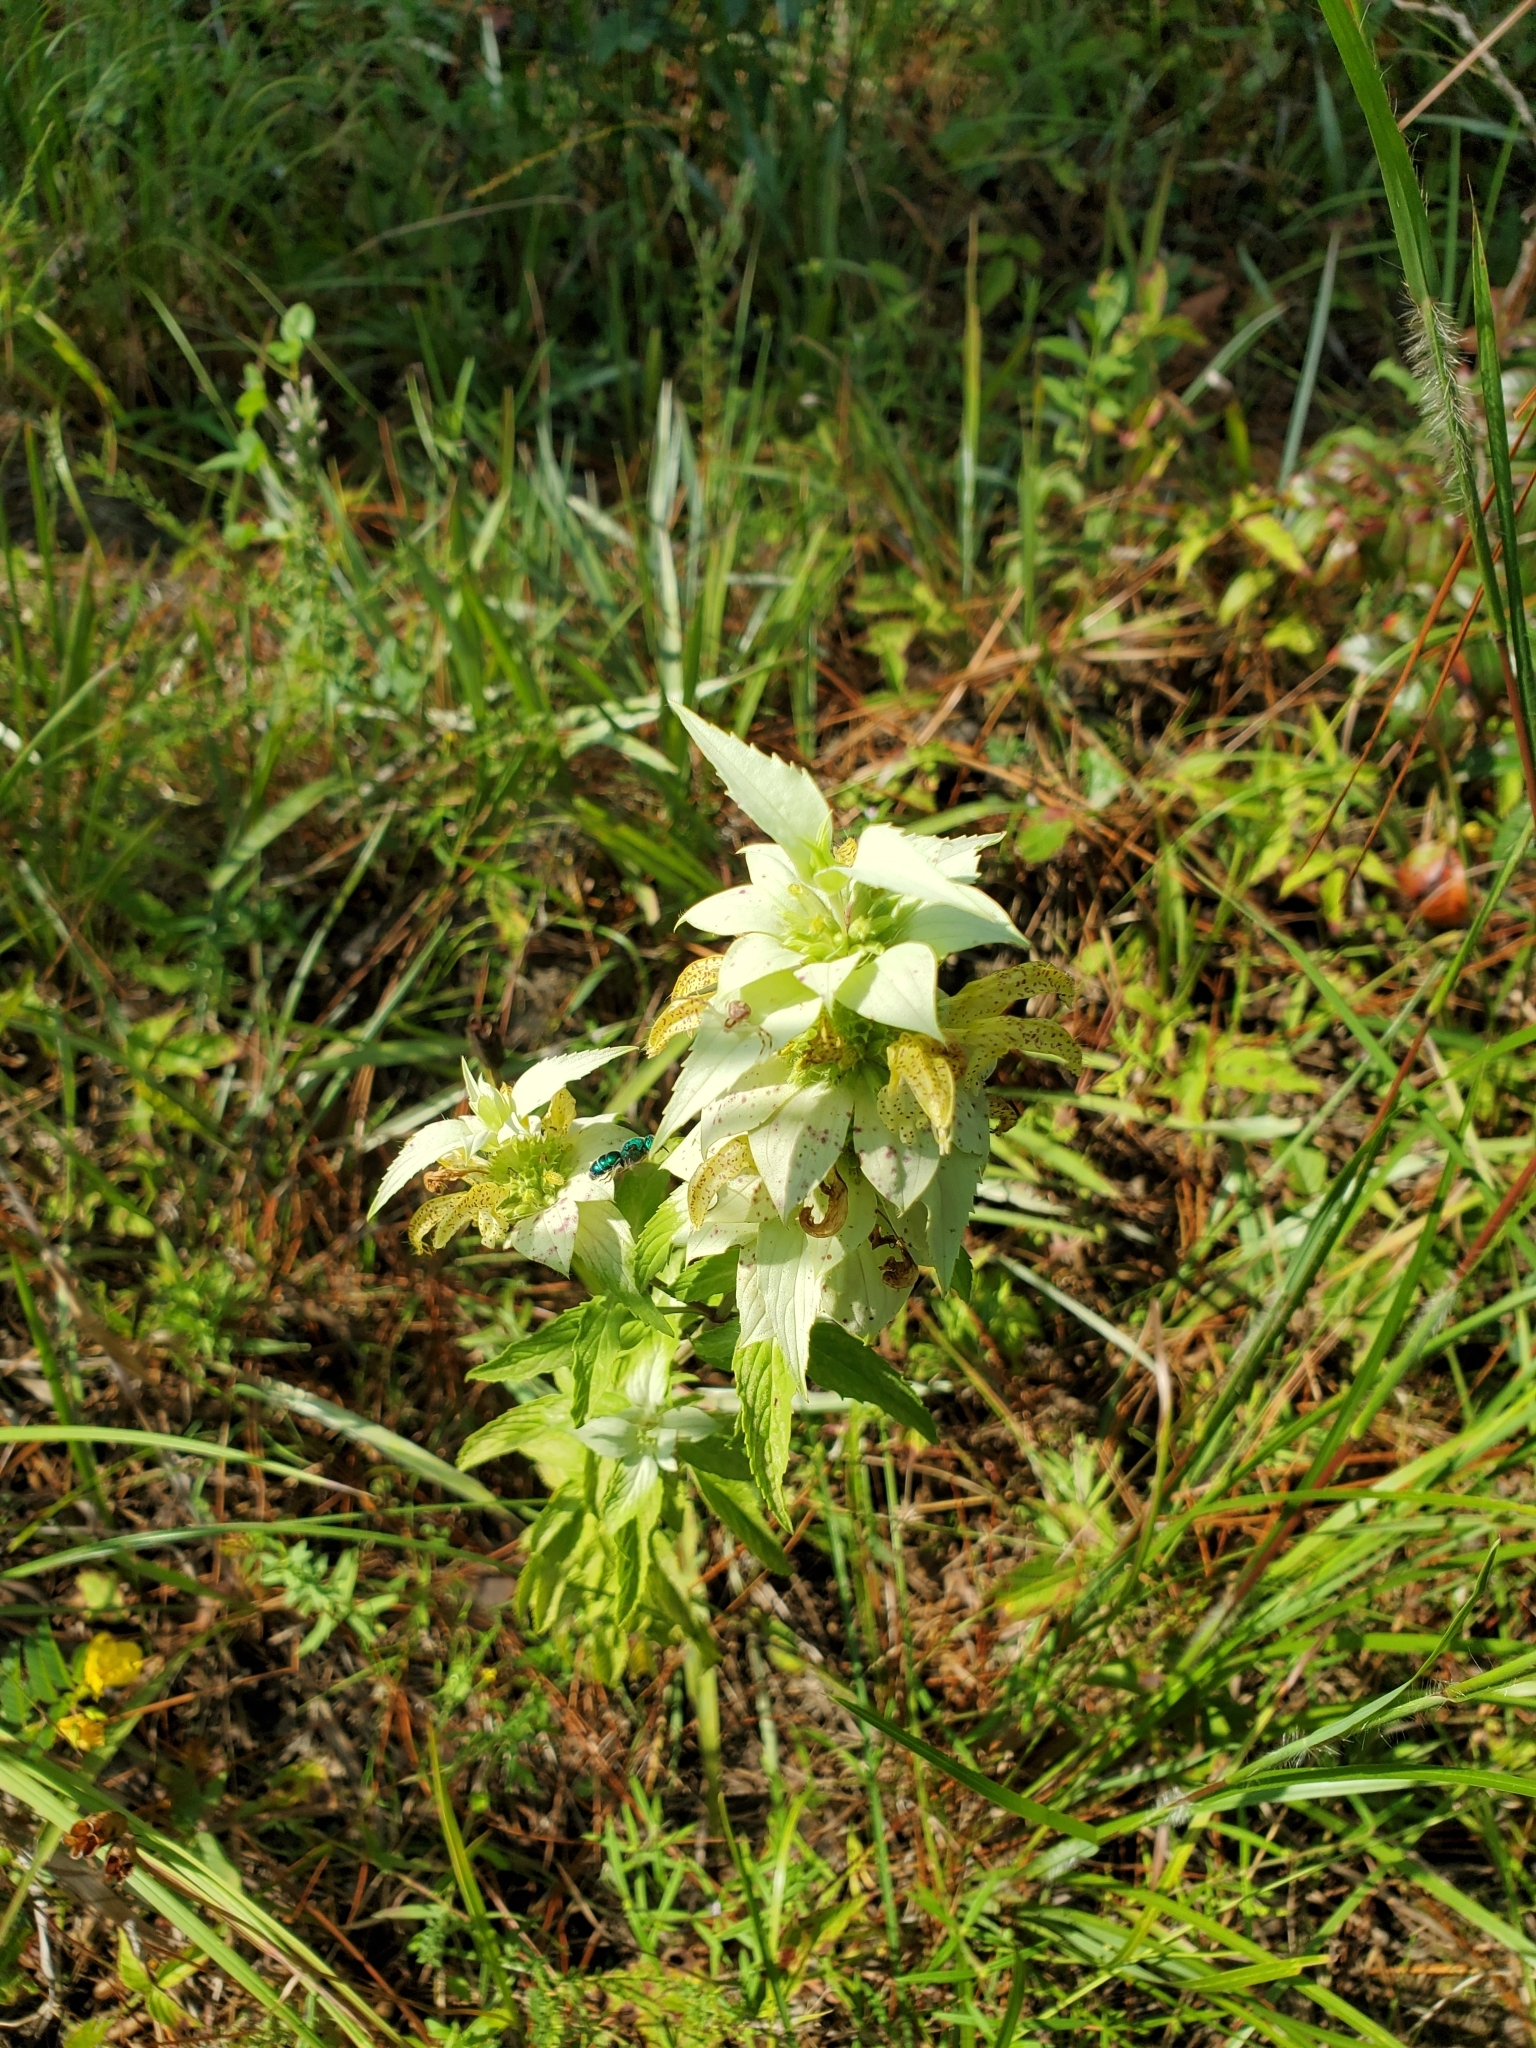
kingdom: Plantae
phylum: Tracheophyta
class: Magnoliopsida
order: Lamiales
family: Lamiaceae
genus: Monarda
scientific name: Monarda punctata
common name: Dotted monarda
